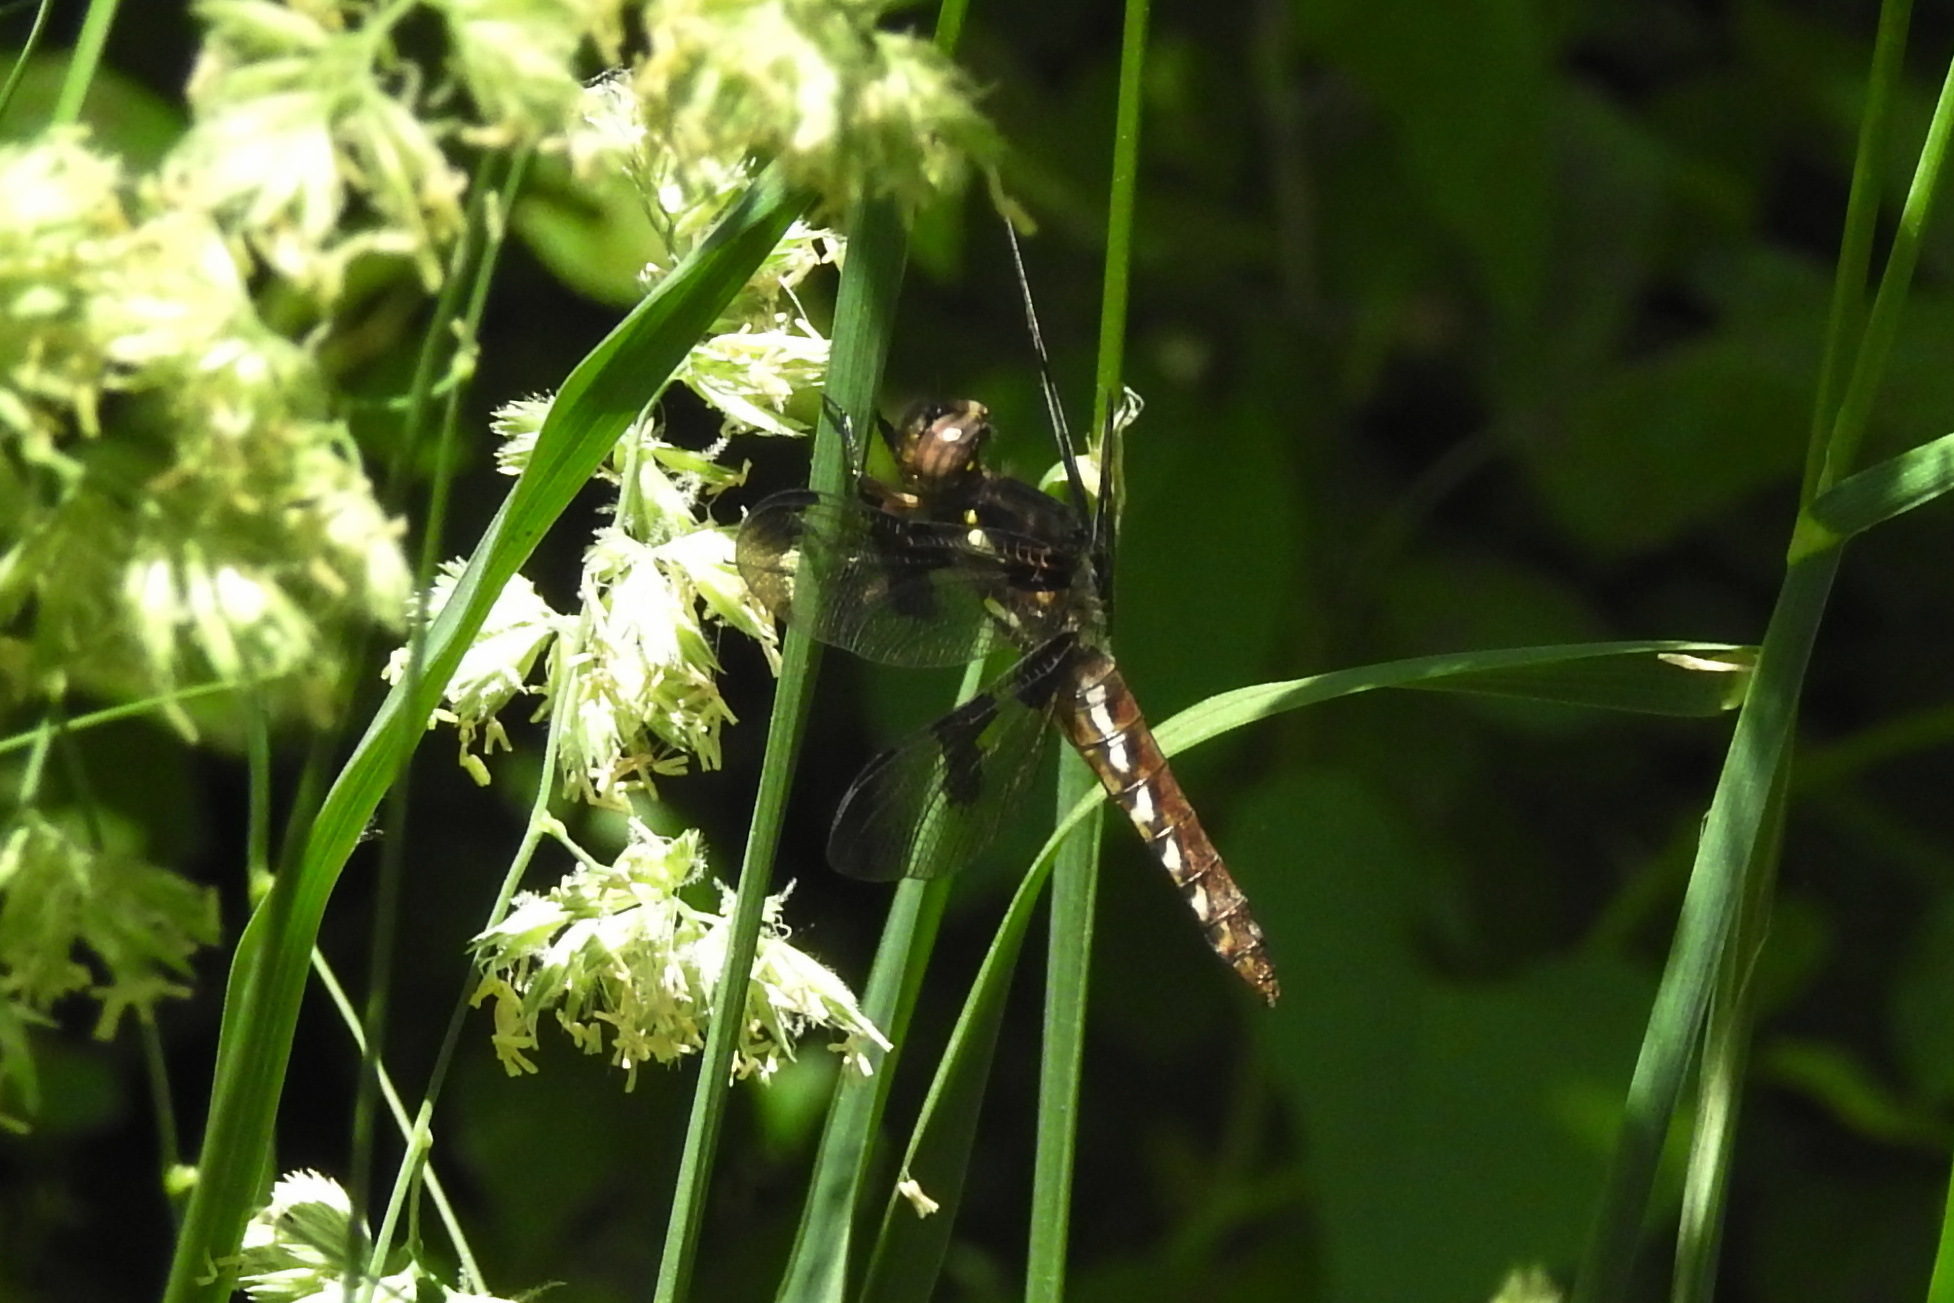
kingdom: Animalia
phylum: Arthropoda
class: Insecta
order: Odonata
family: Libellulidae
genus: Plathemis
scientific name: Plathemis lydia
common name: Common whitetail
